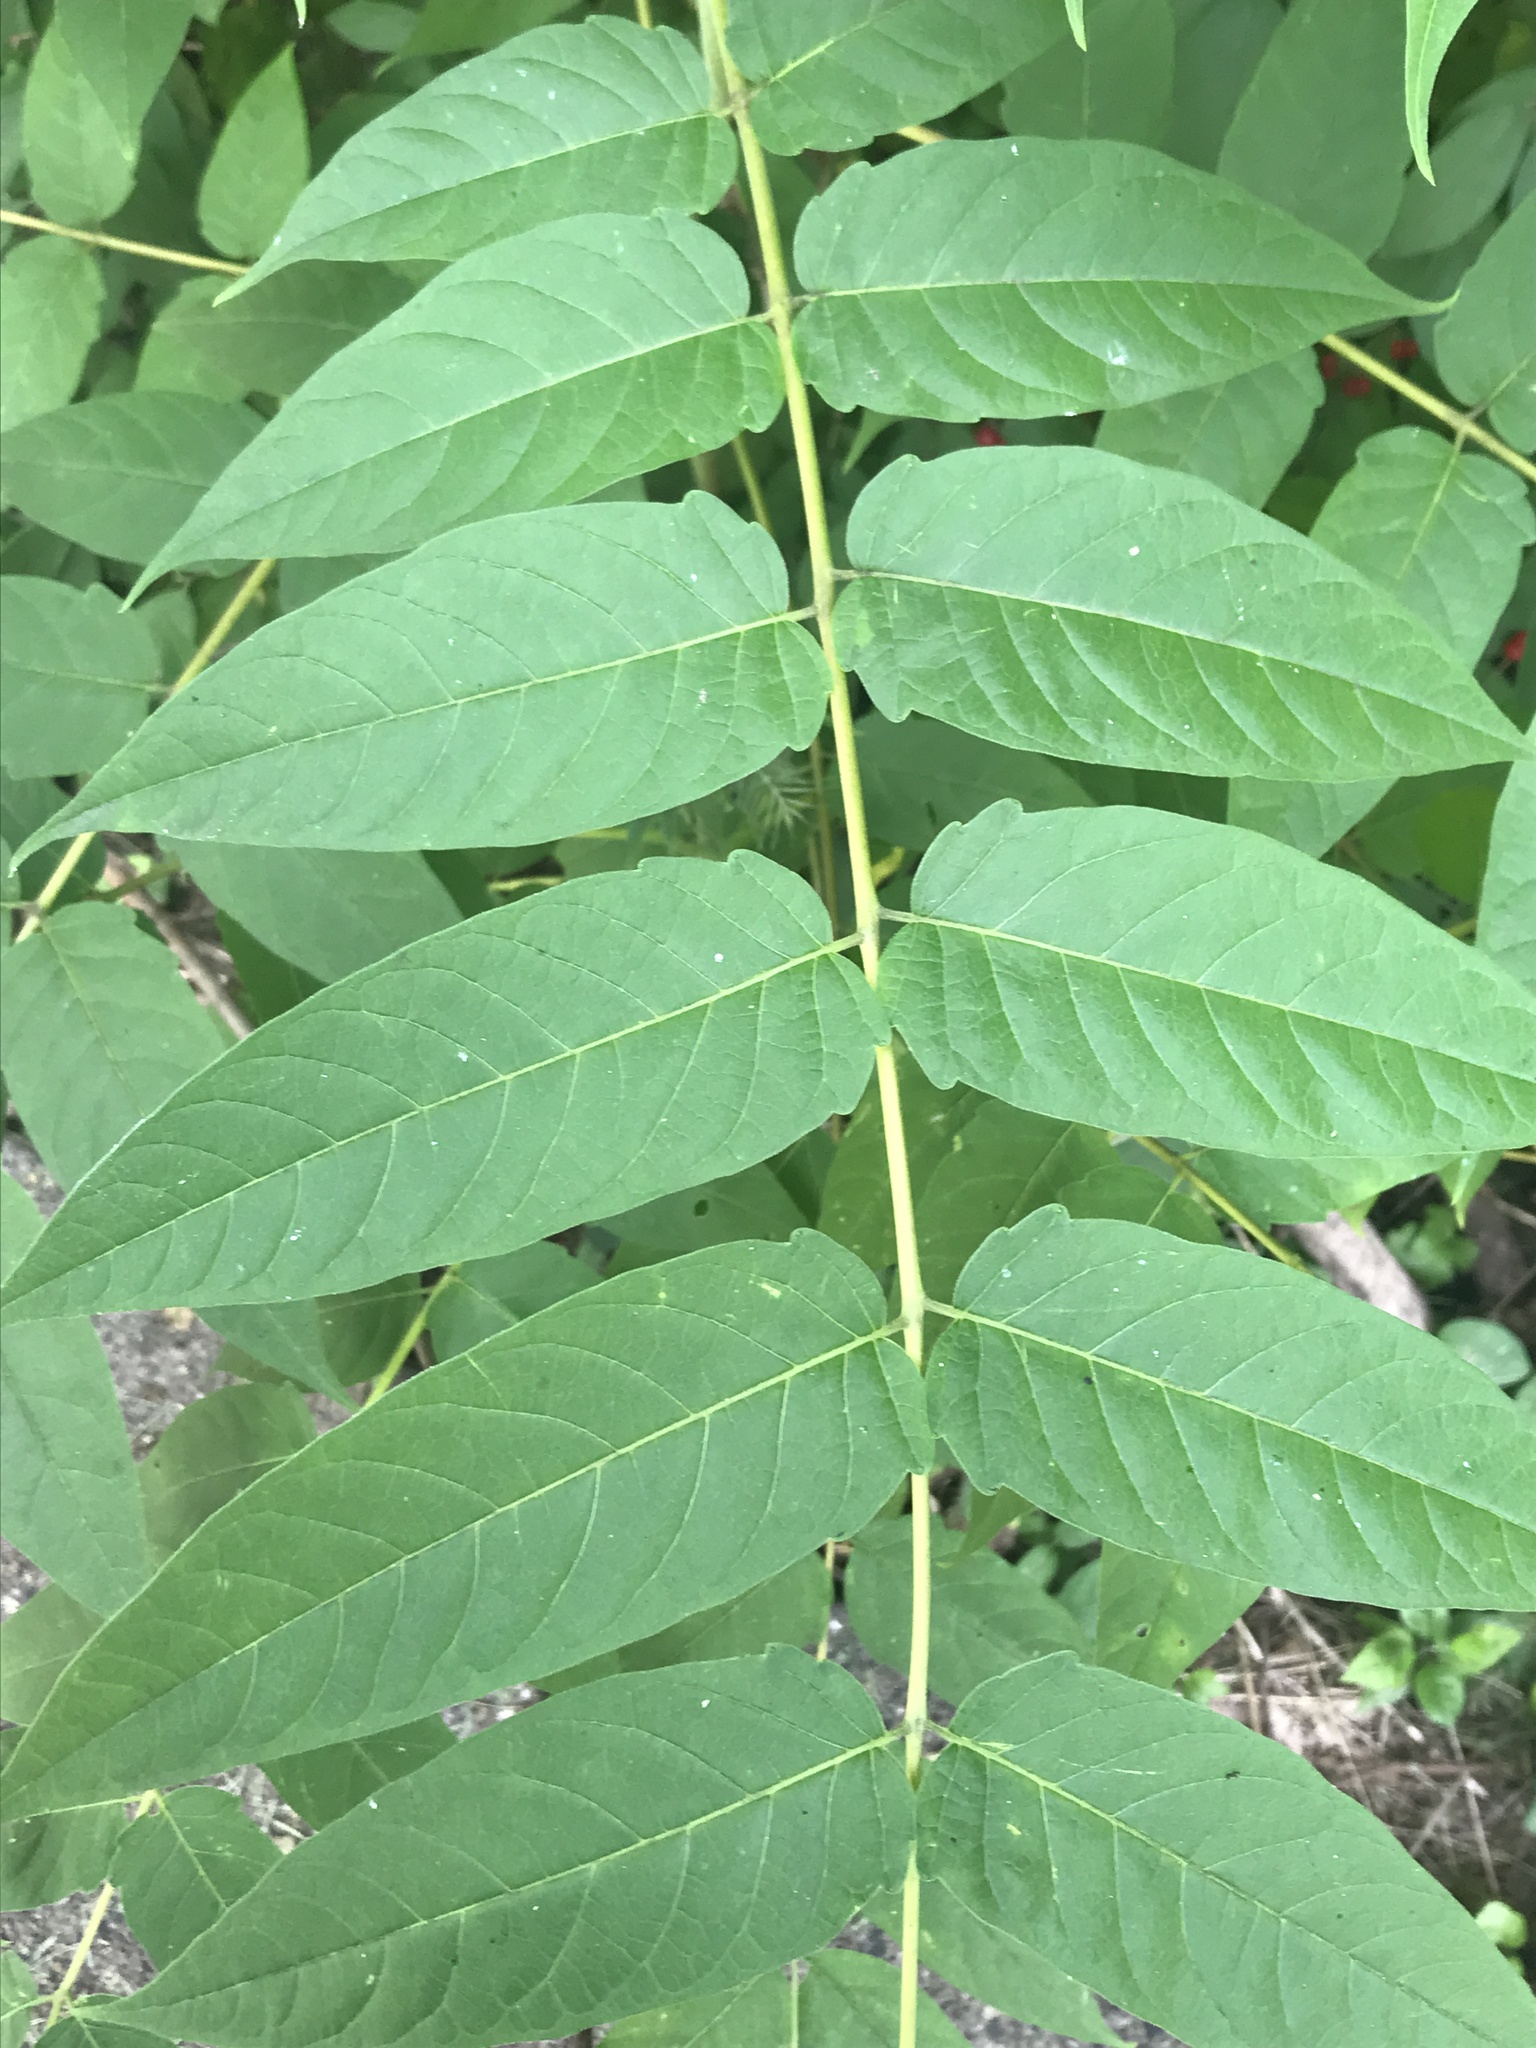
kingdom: Plantae
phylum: Tracheophyta
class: Magnoliopsida
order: Sapindales
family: Simaroubaceae
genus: Ailanthus
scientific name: Ailanthus altissima
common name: Tree-of-heaven
